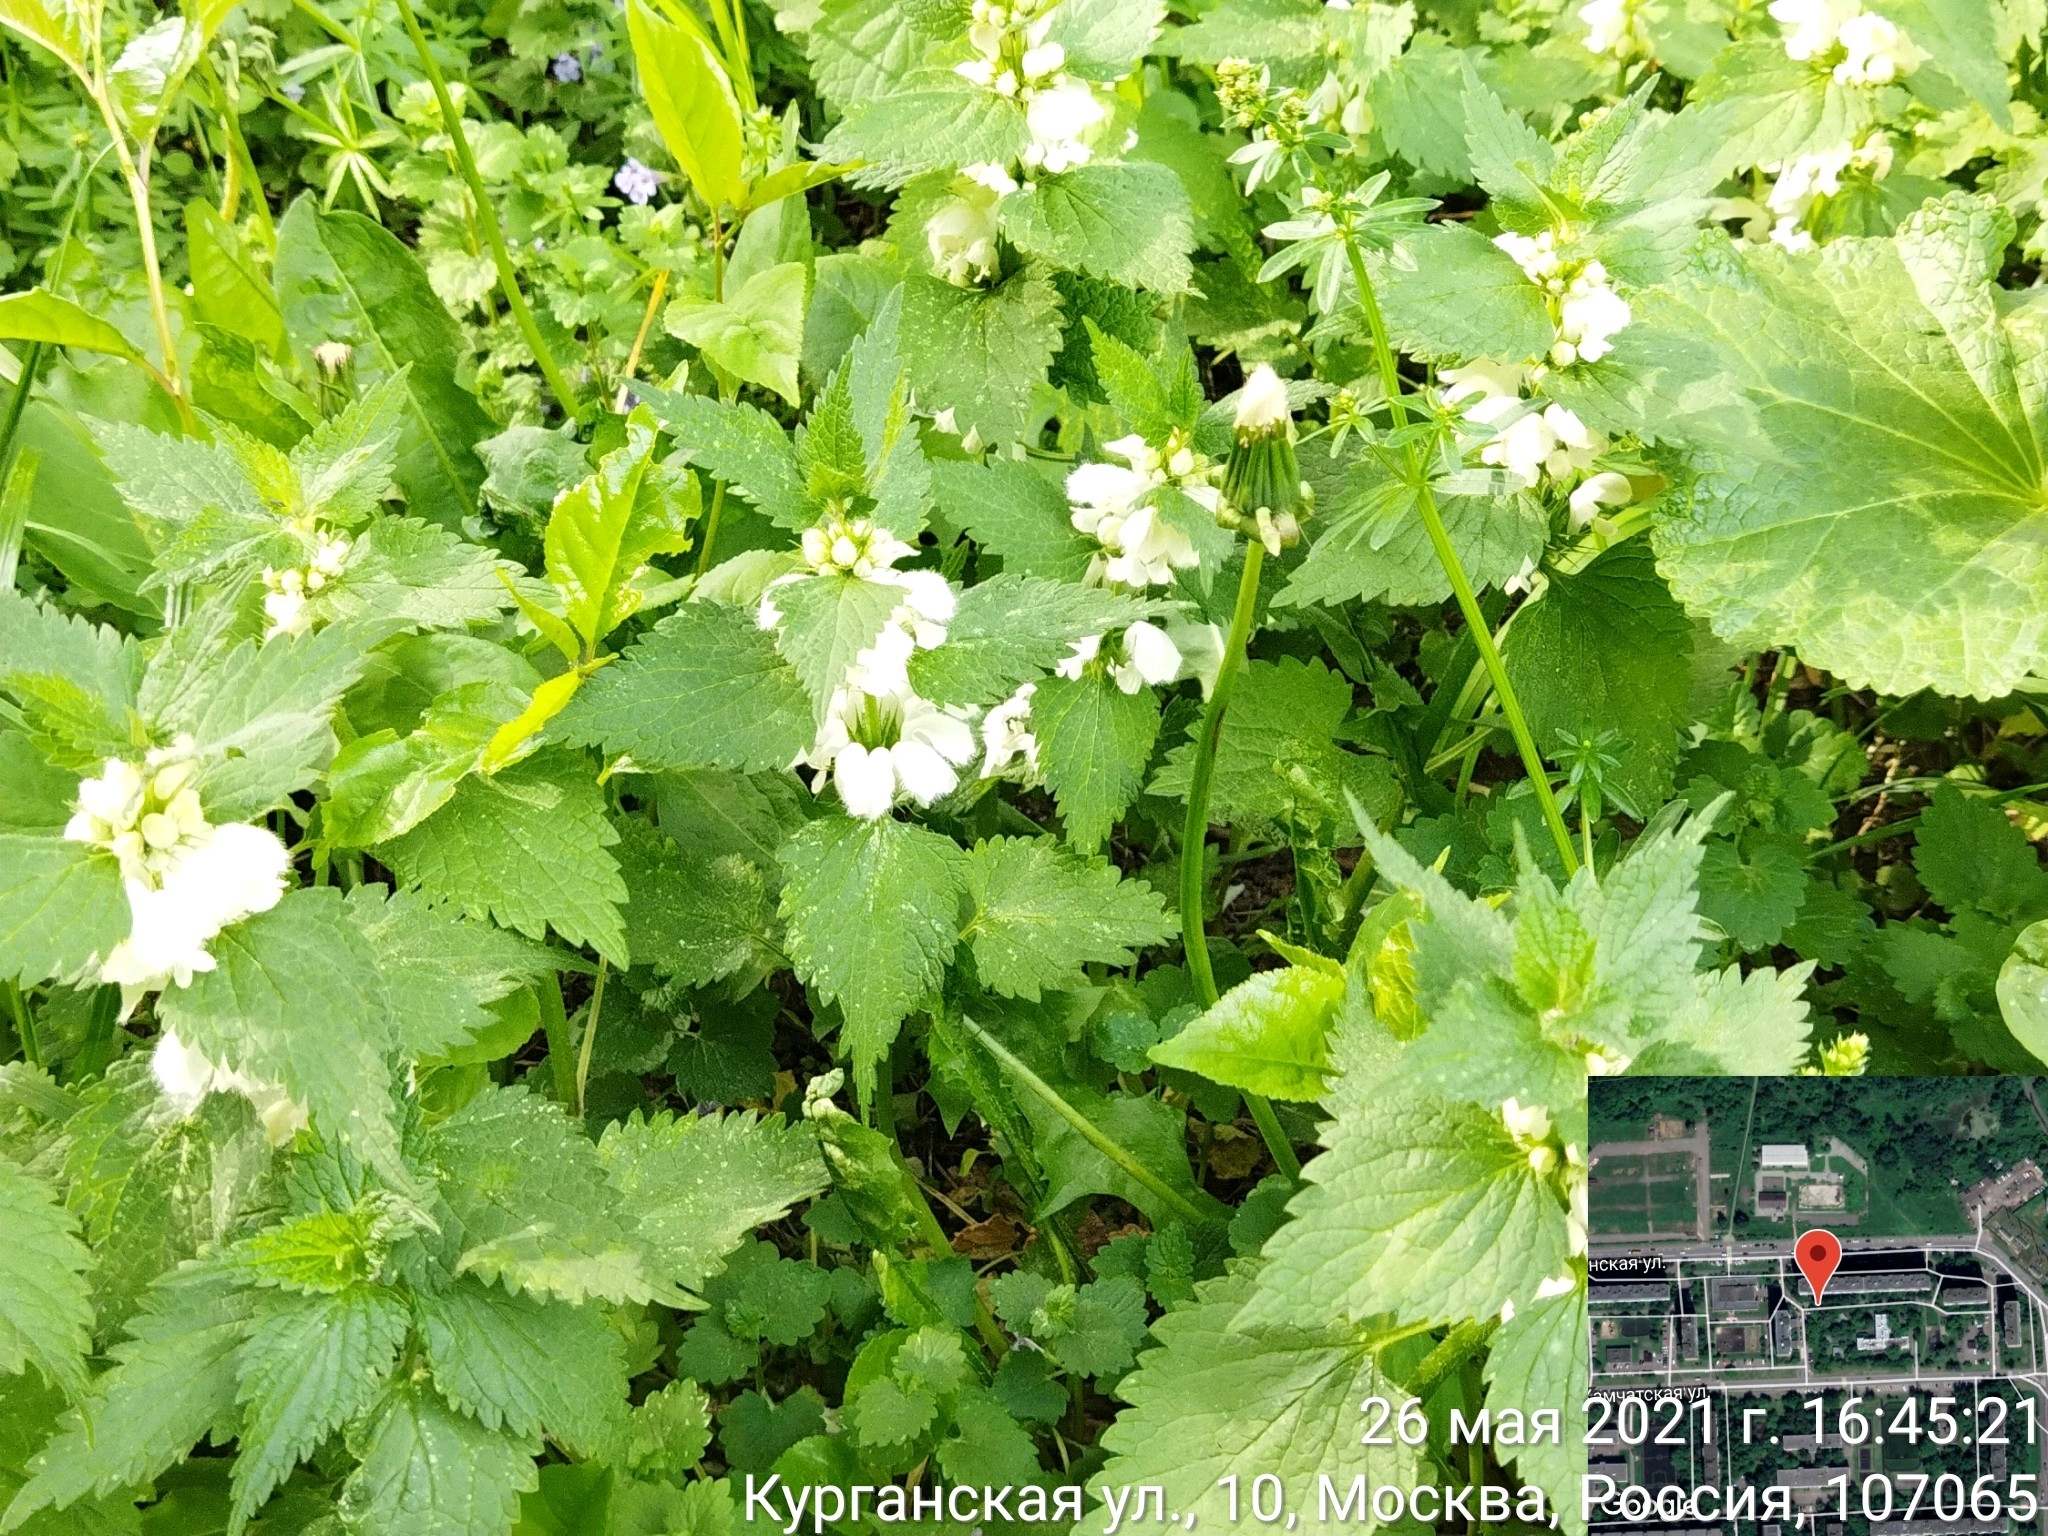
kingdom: Plantae
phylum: Tracheophyta
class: Magnoliopsida
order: Lamiales
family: Lamiaceae
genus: Lamium
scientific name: Lamium album
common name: White dead-nettle
